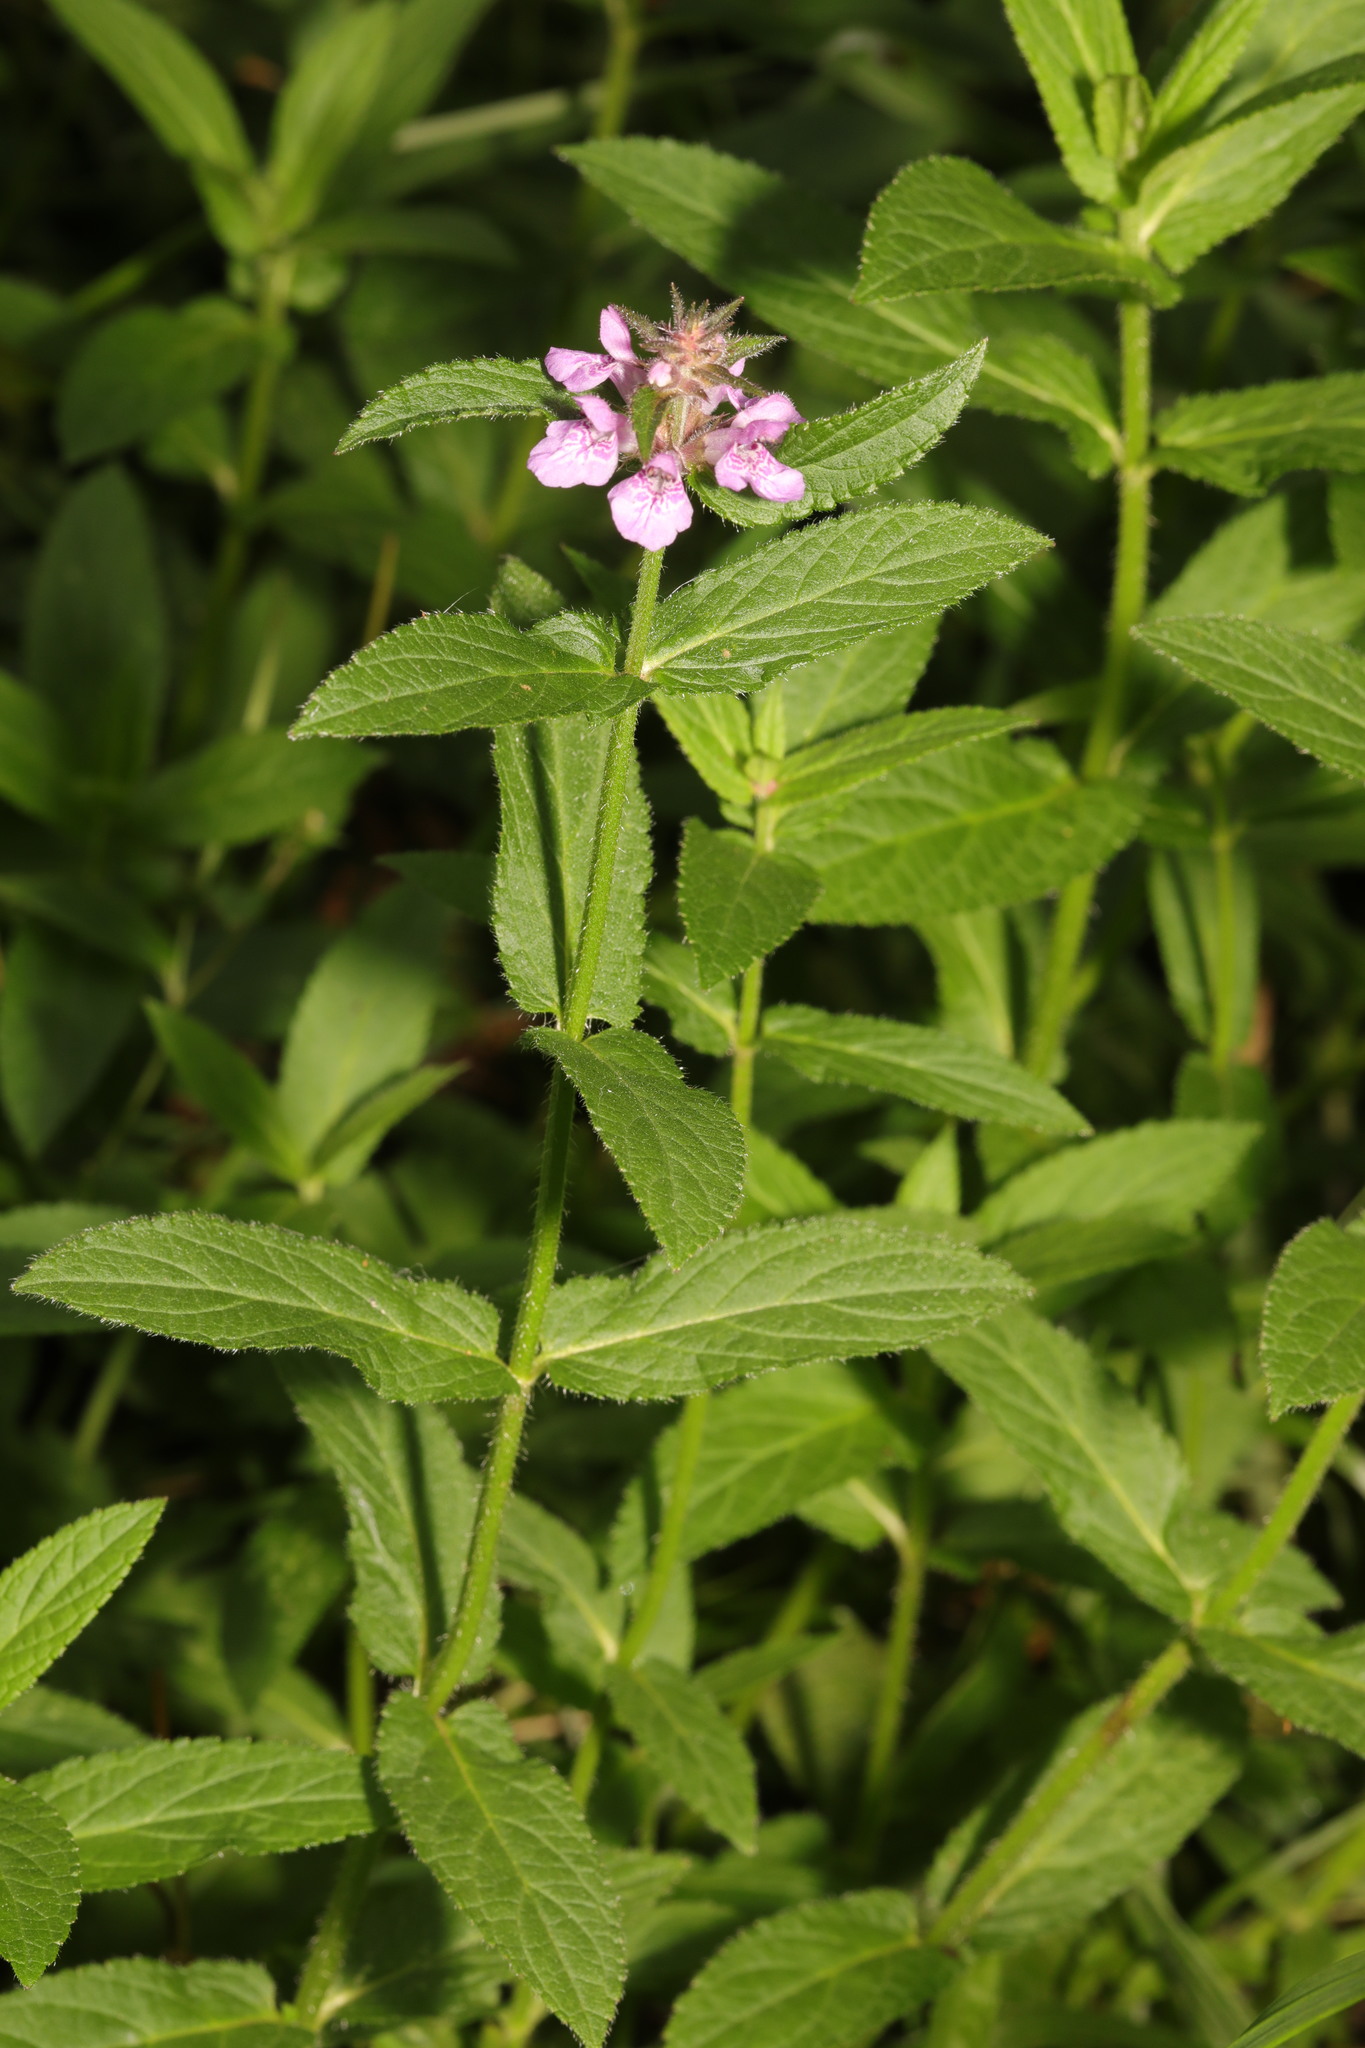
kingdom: Plantae
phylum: Tracheophyta
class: Magnoliopsida
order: Lamiales
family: Lamiaceae
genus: Stachys
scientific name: Stachys palustris
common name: Marsh woundwort
